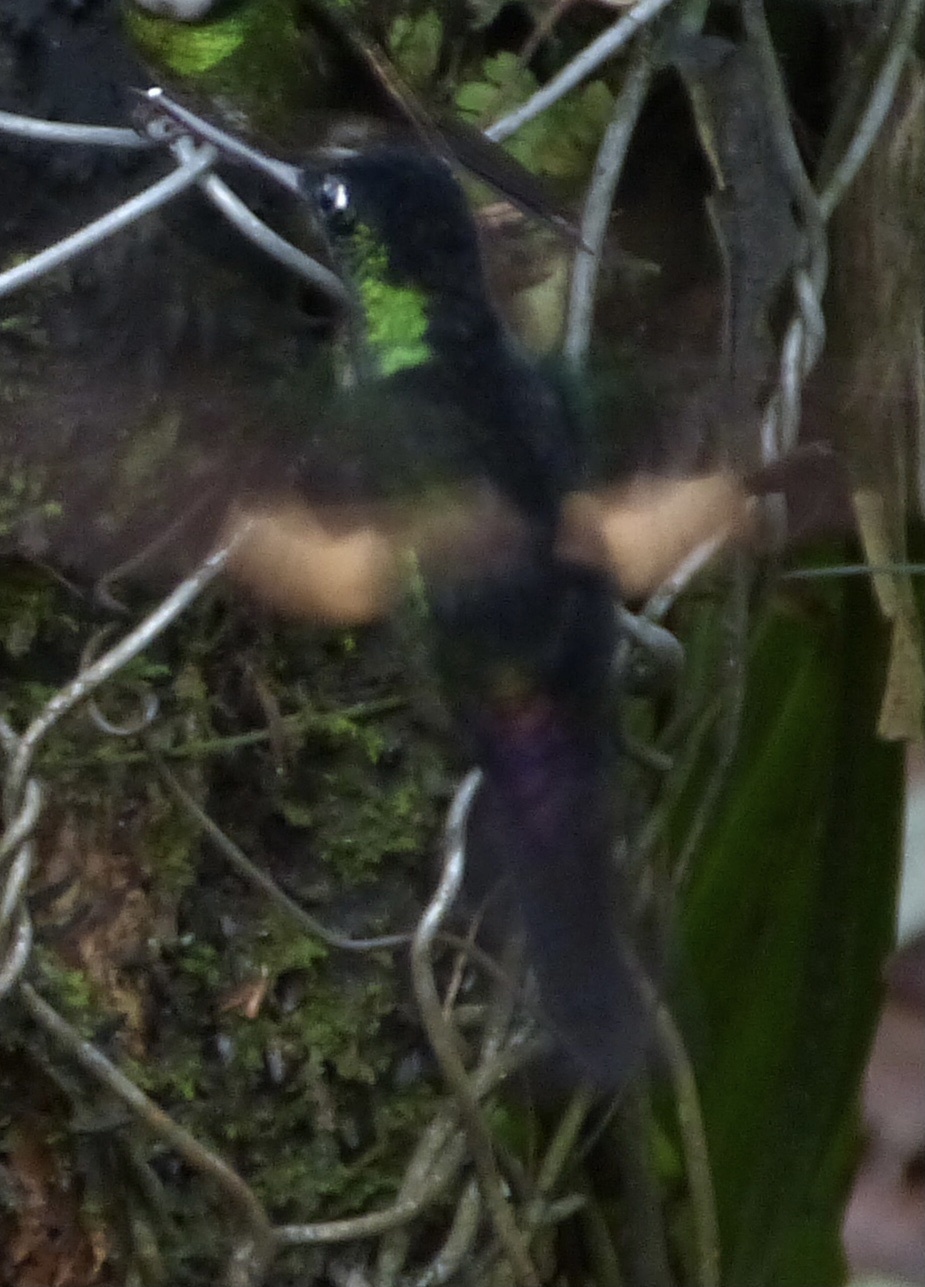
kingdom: Animalia
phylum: Chordata
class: Aves
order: Apodiformes
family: Trochilidae
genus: Coeligena
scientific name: Coeligena lutetiae
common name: Buff-winged starfrontlet
